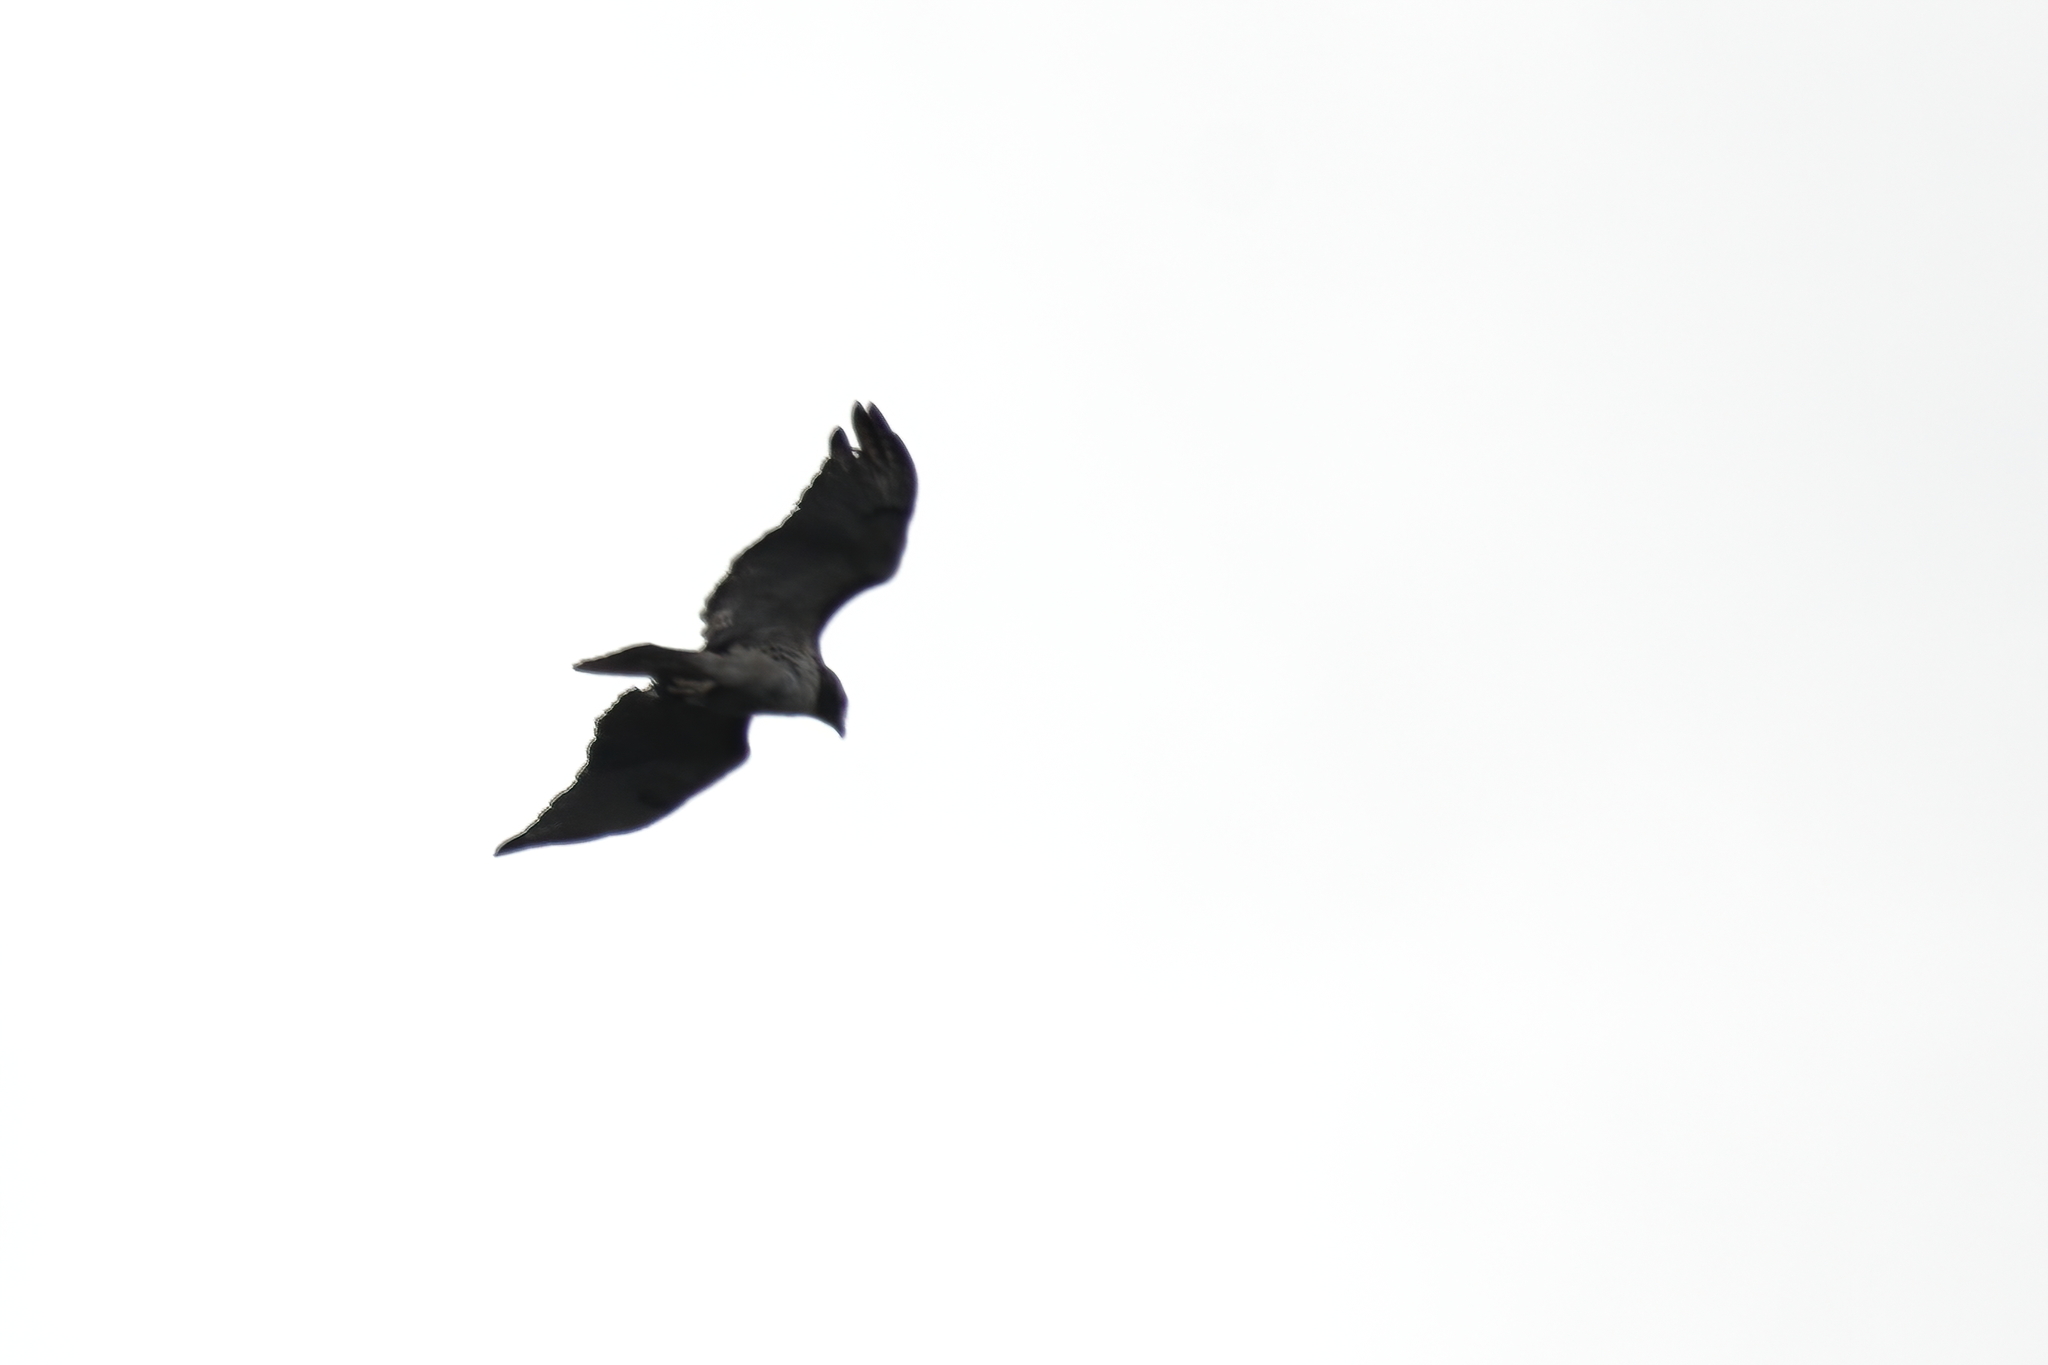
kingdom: Animalia
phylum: Chordata
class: Aves
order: Accipitriformes
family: Accipitridae
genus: Buteo
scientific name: Buteo jamaicensis
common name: Red-tailed hawk
